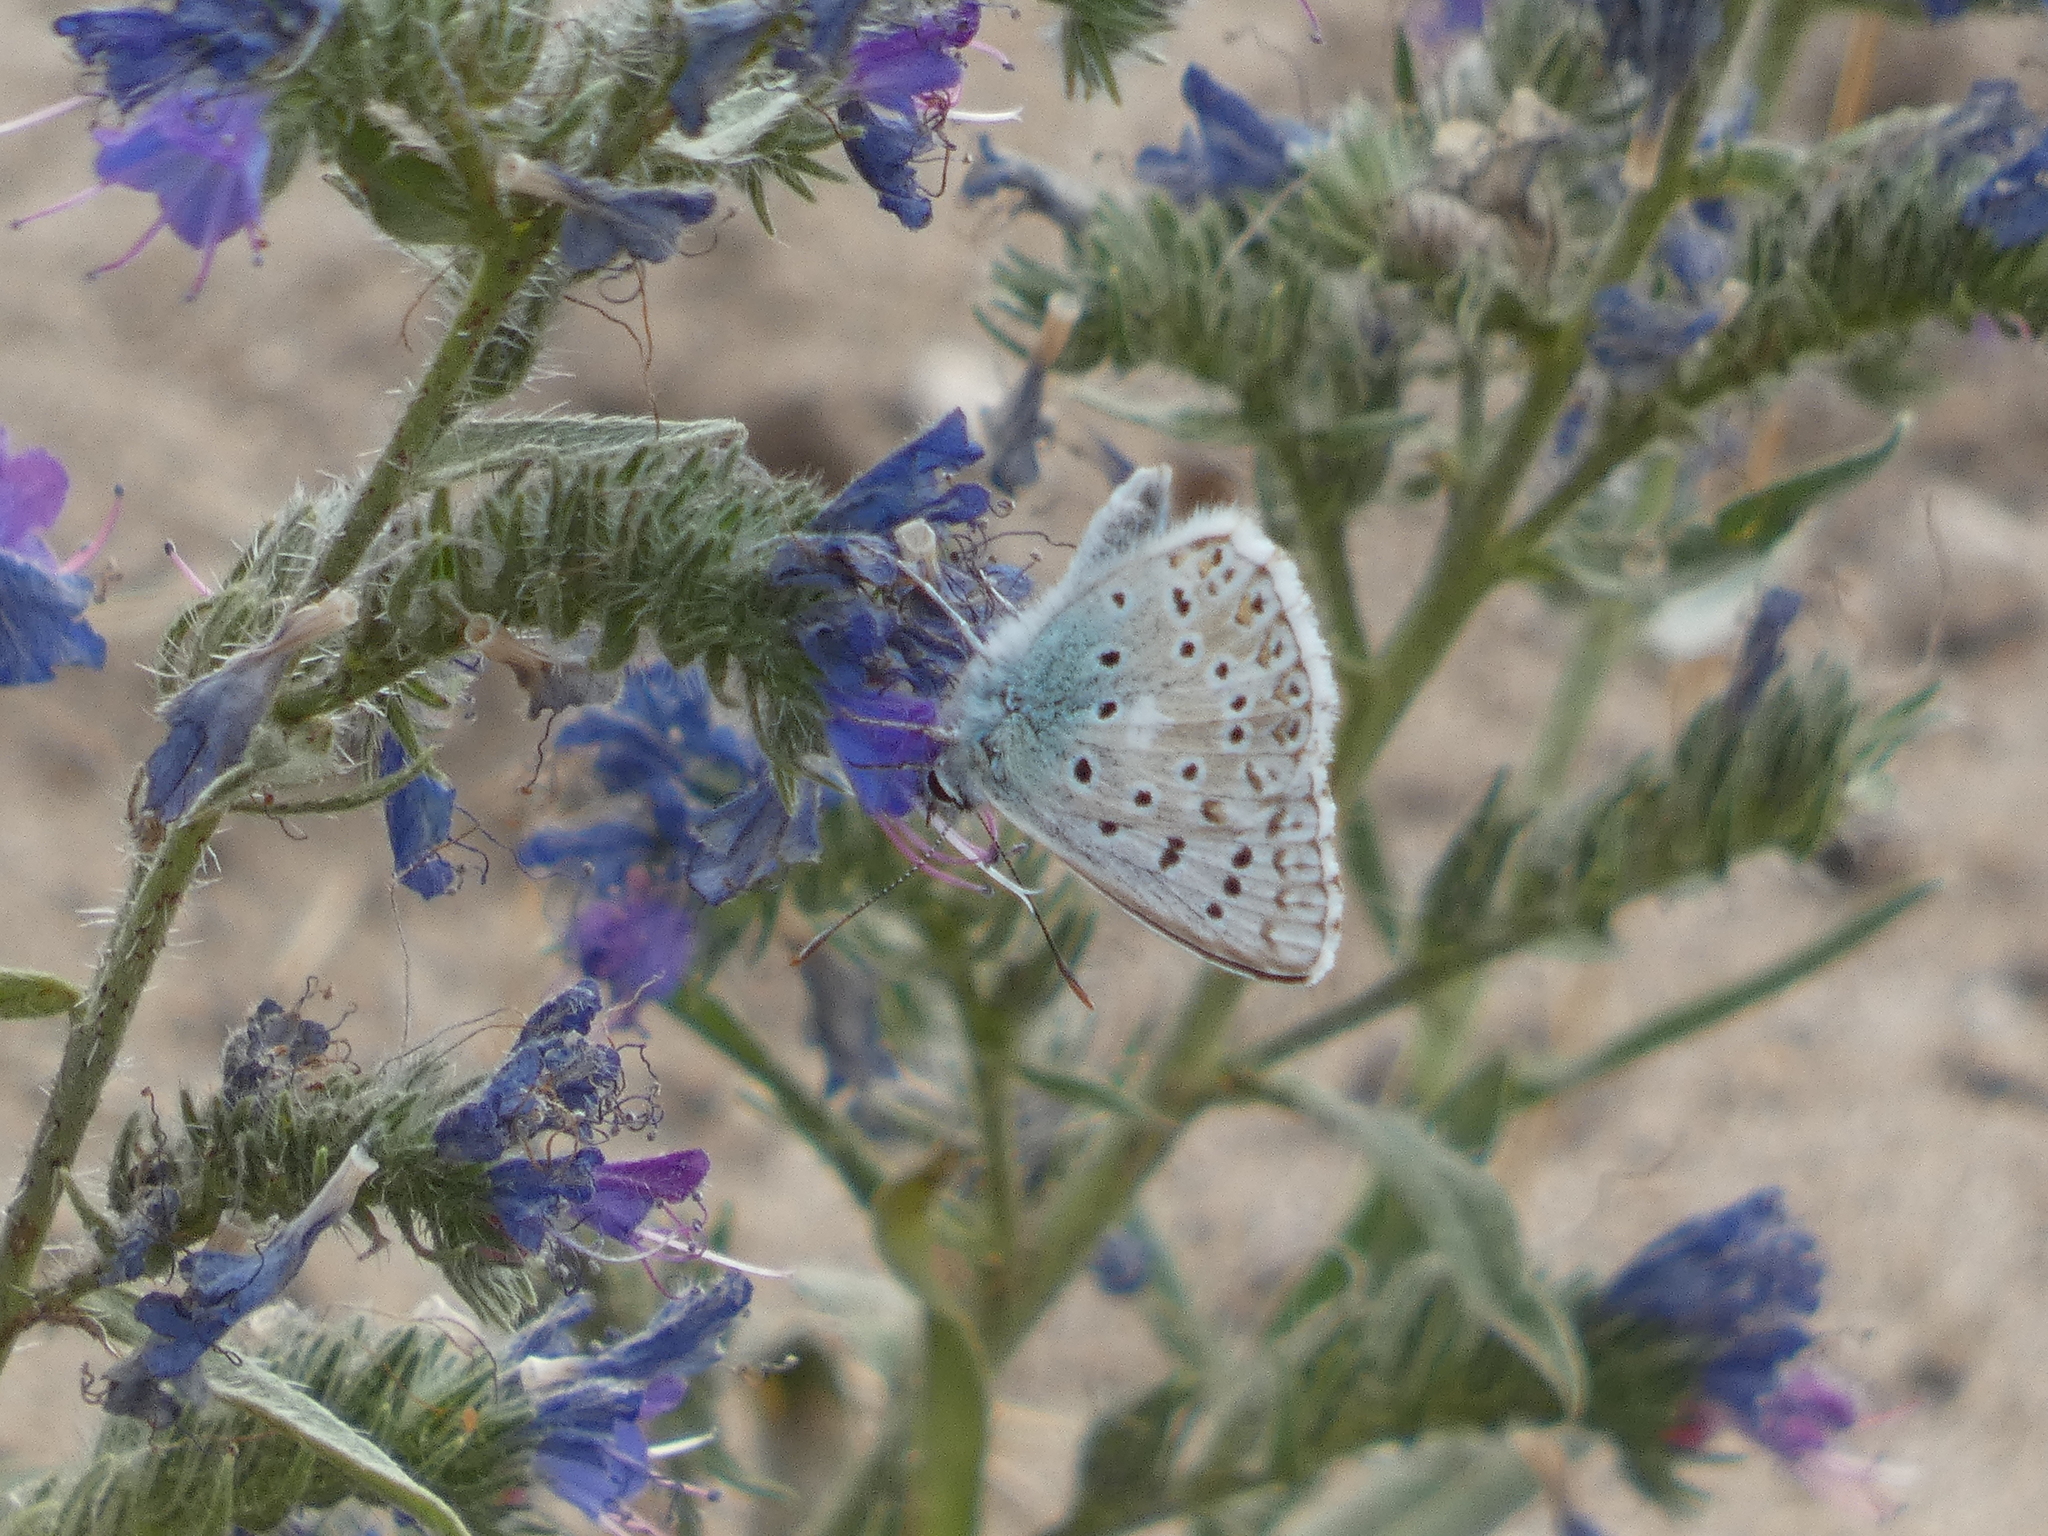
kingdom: Animalia
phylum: Arthropoda
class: Insecta
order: Lepidoptera
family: Lycaenidae
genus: Lysandra
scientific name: Lysandra coridon
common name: Chalkhill blue
